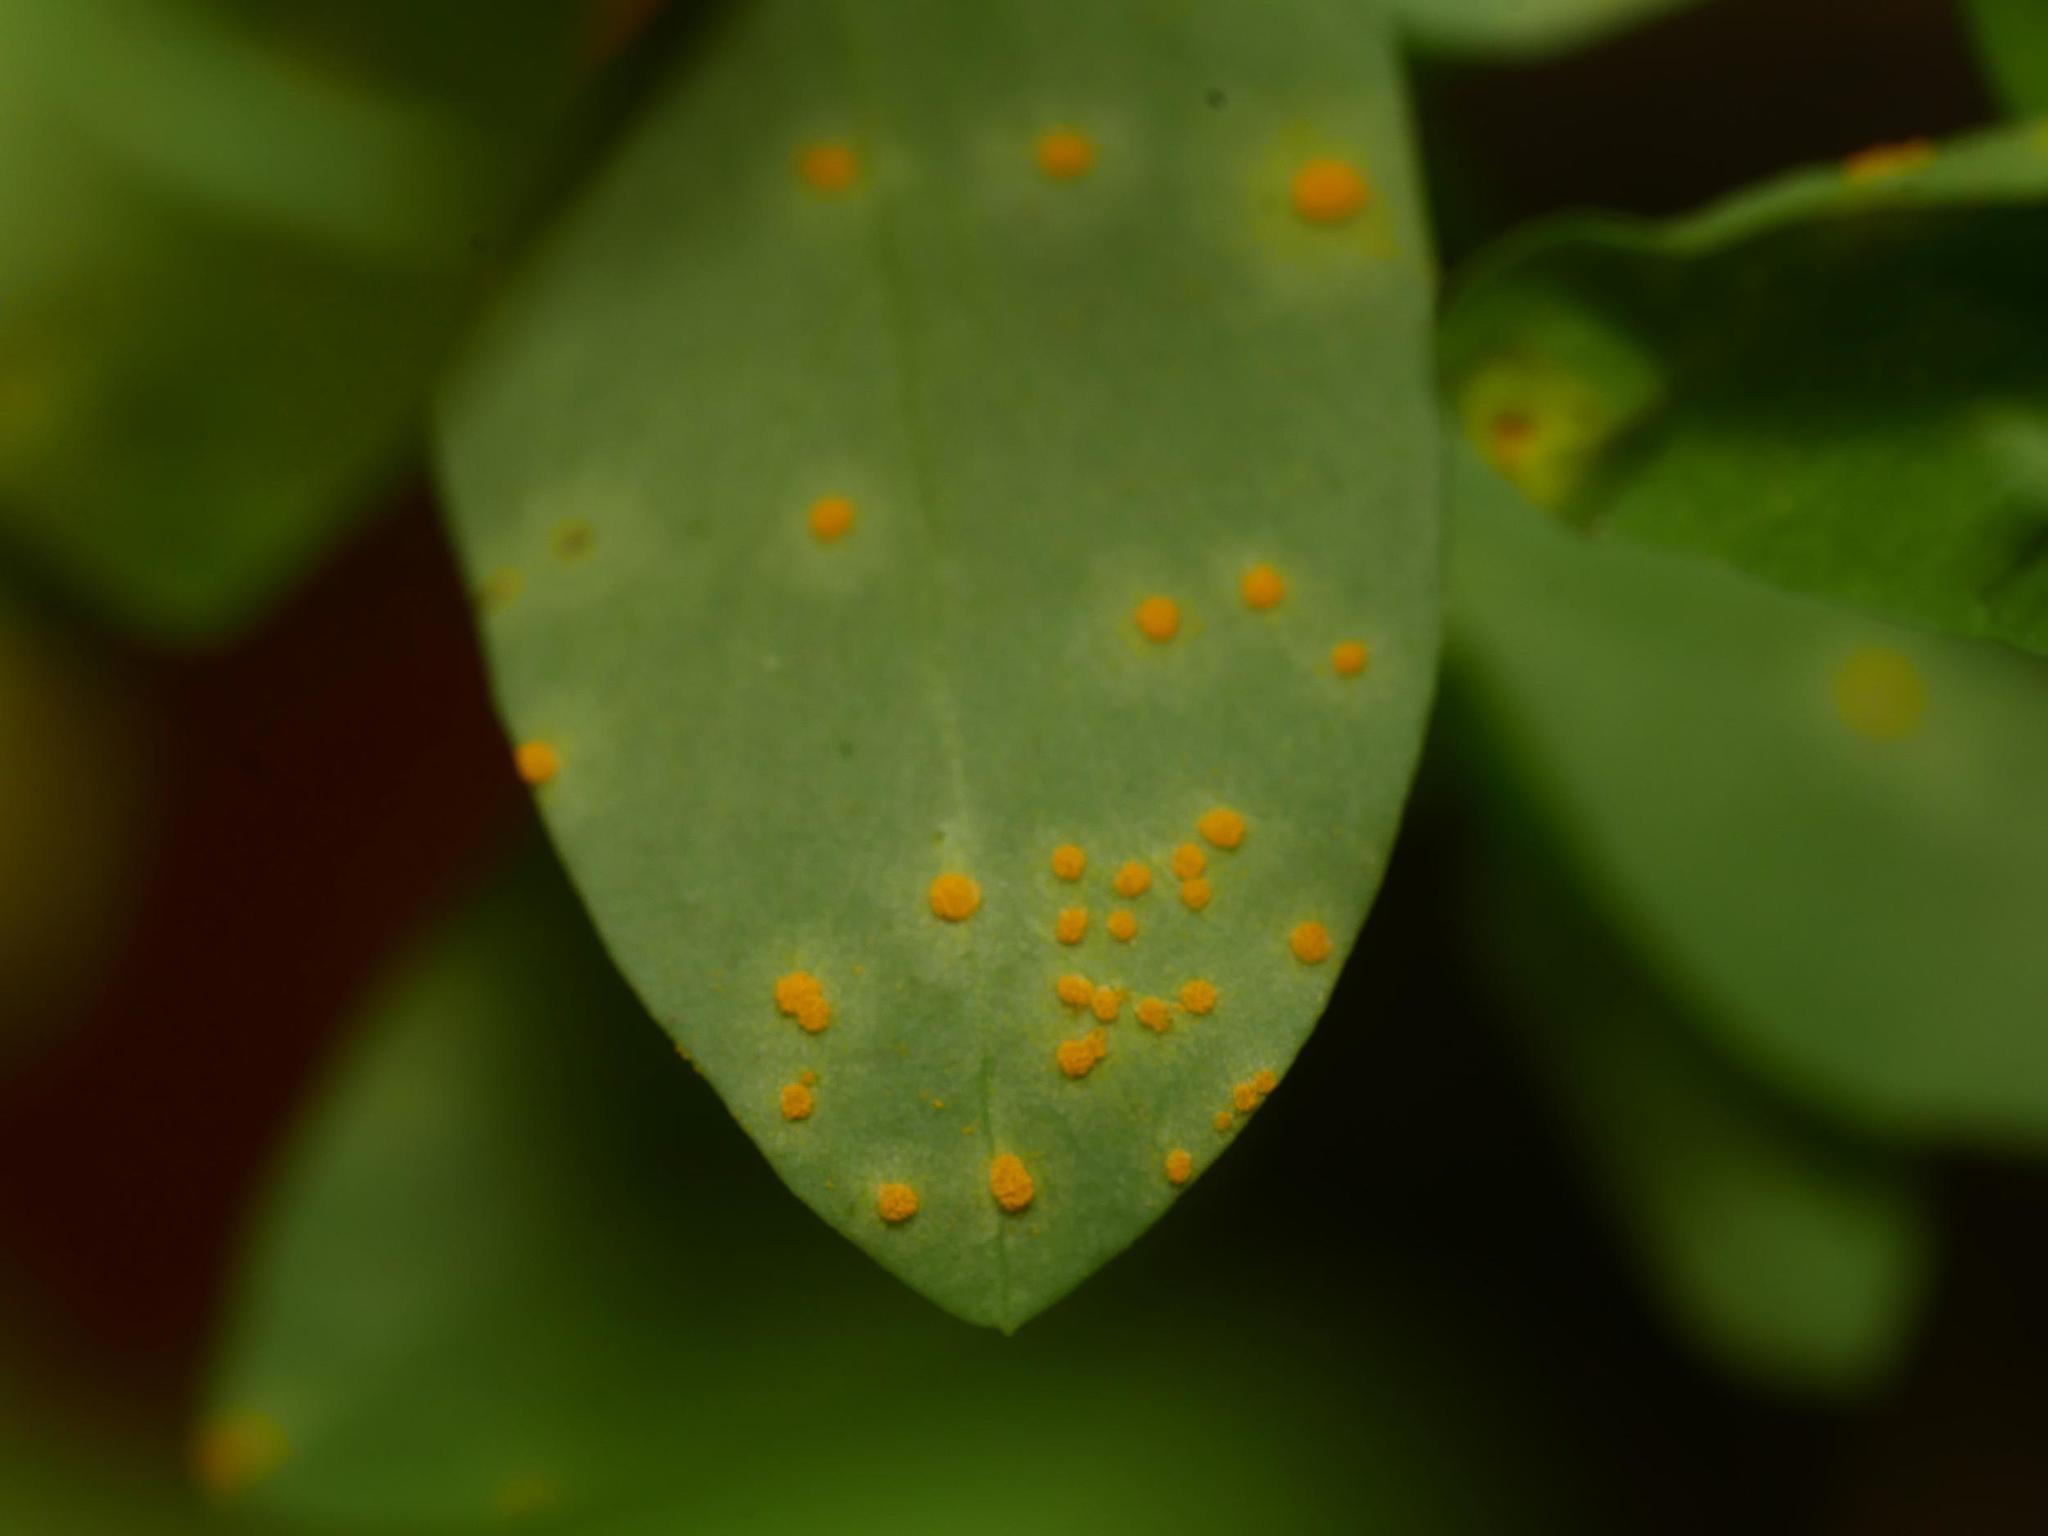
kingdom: Fungi
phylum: Basidiomycota
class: Pucciniomycetes
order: Pucciniales
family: Melampsoraceae
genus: Melampsora
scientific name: Melampsora euphorbiae
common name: Spurge rust
